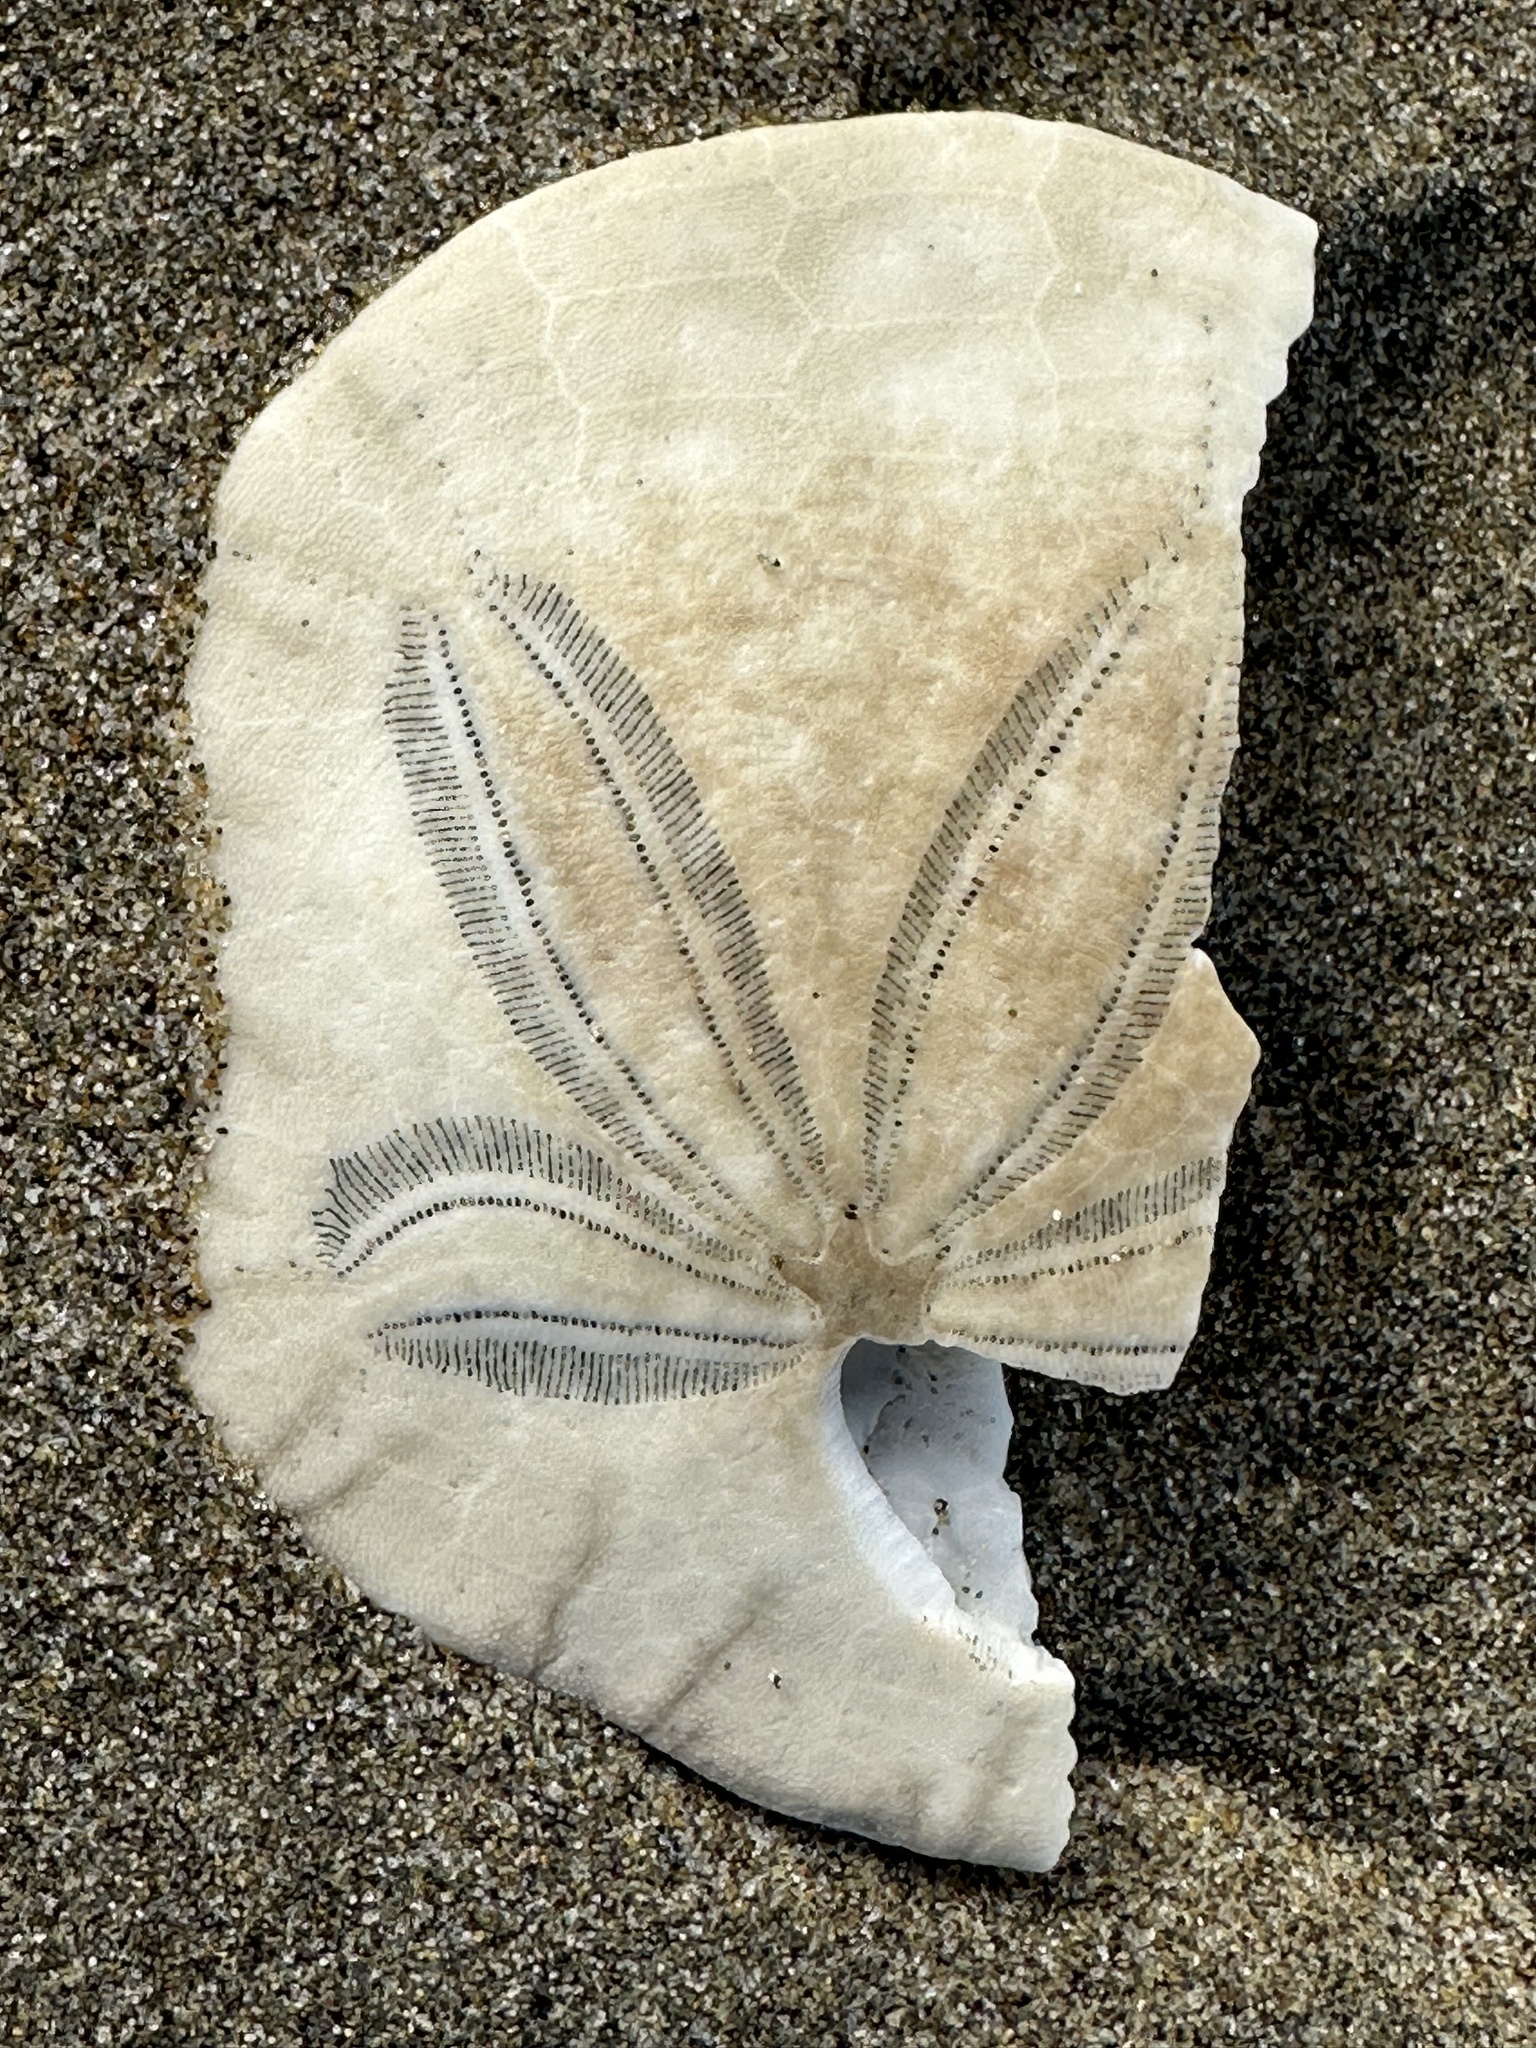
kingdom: Animalia
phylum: Echinodermata
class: Echinoidea
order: Echinolampadacea
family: Dendrasteridae
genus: Dendraster
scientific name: Dendraster excentricus
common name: Eccentric sand dollar sea urchin
